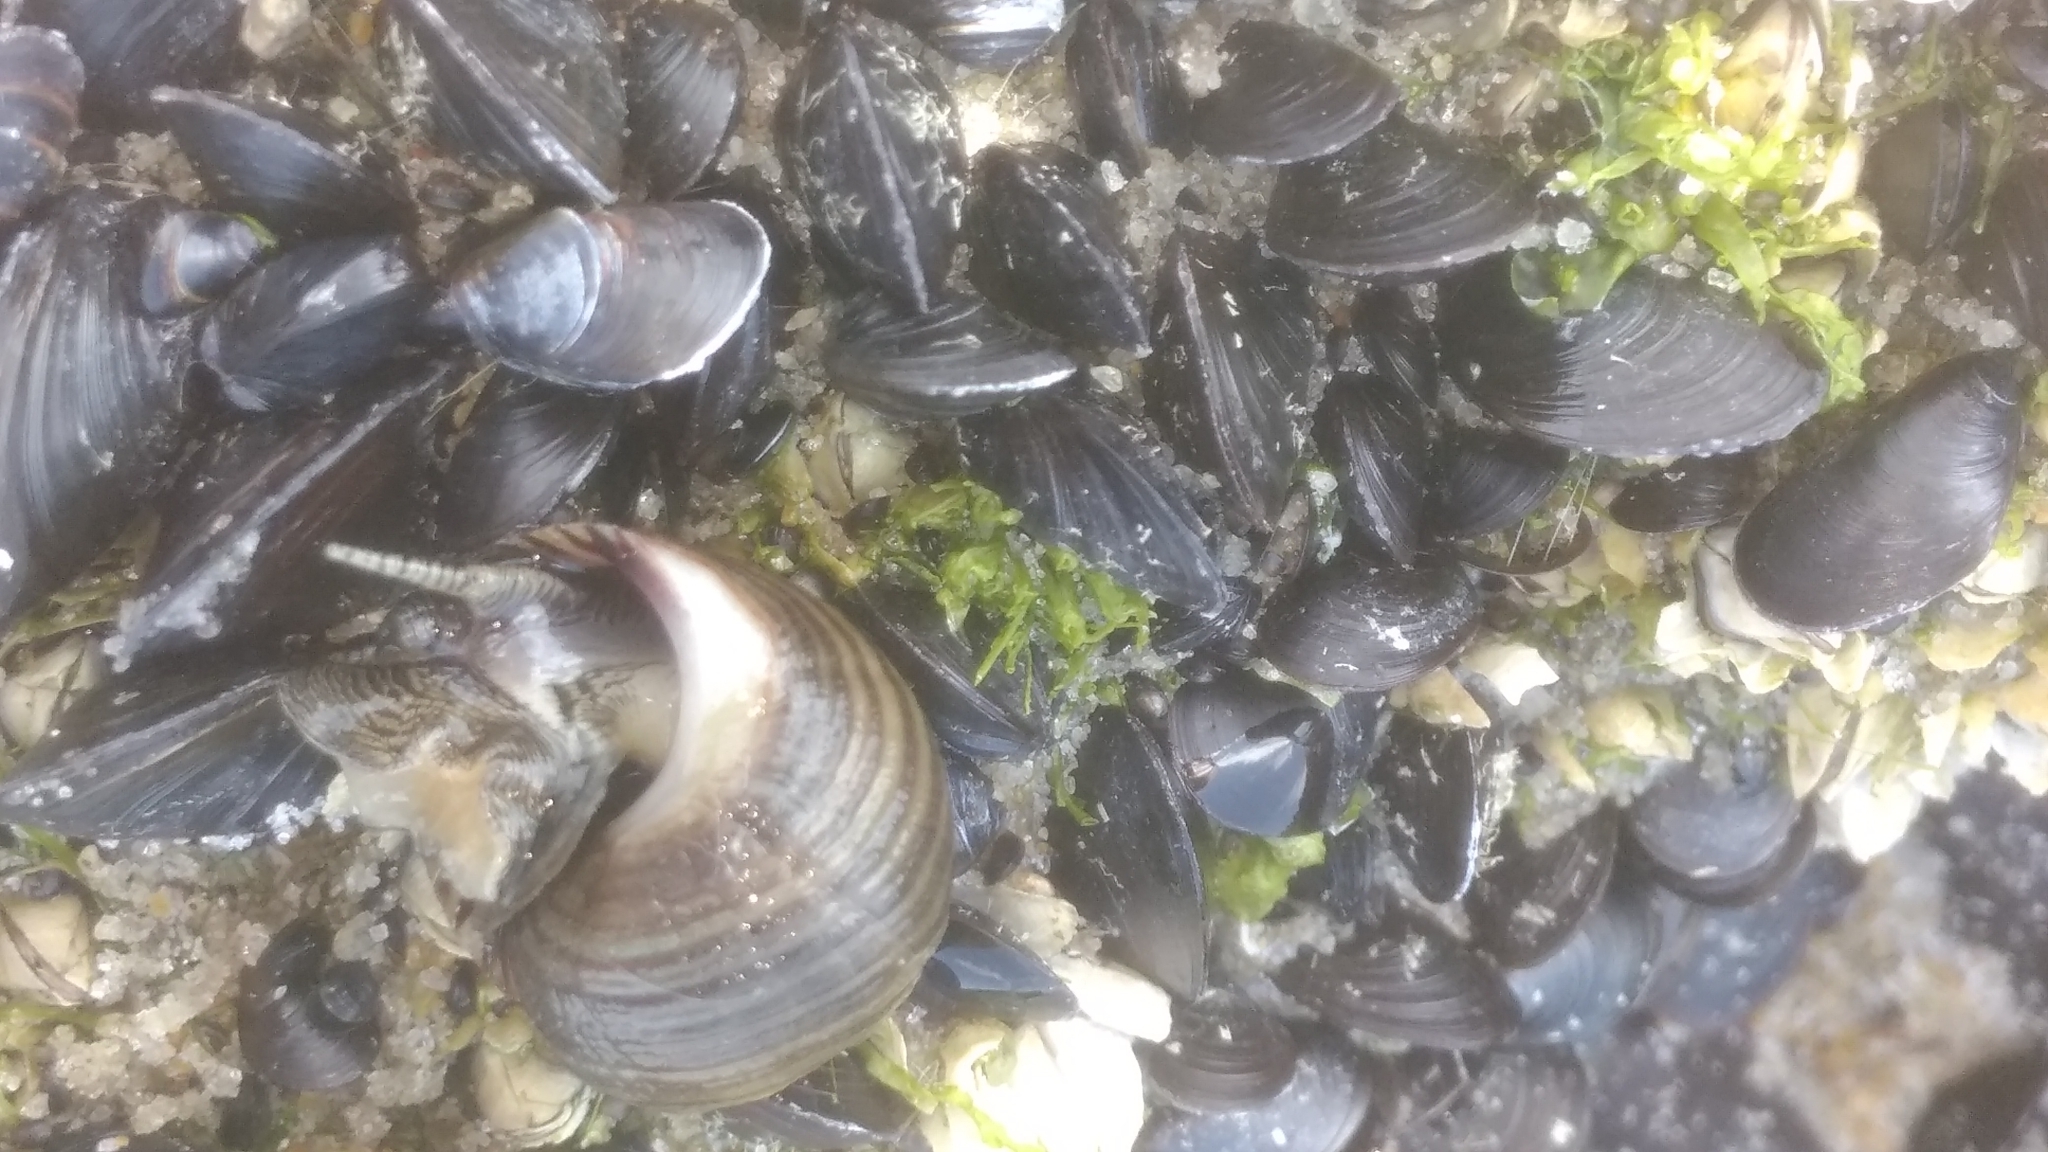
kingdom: Animalia
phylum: Mollusca
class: Bivalvia
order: Mytilida
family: Mytilidae
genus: Mytilus
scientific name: Mytilus edulis
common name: Blue mussel
